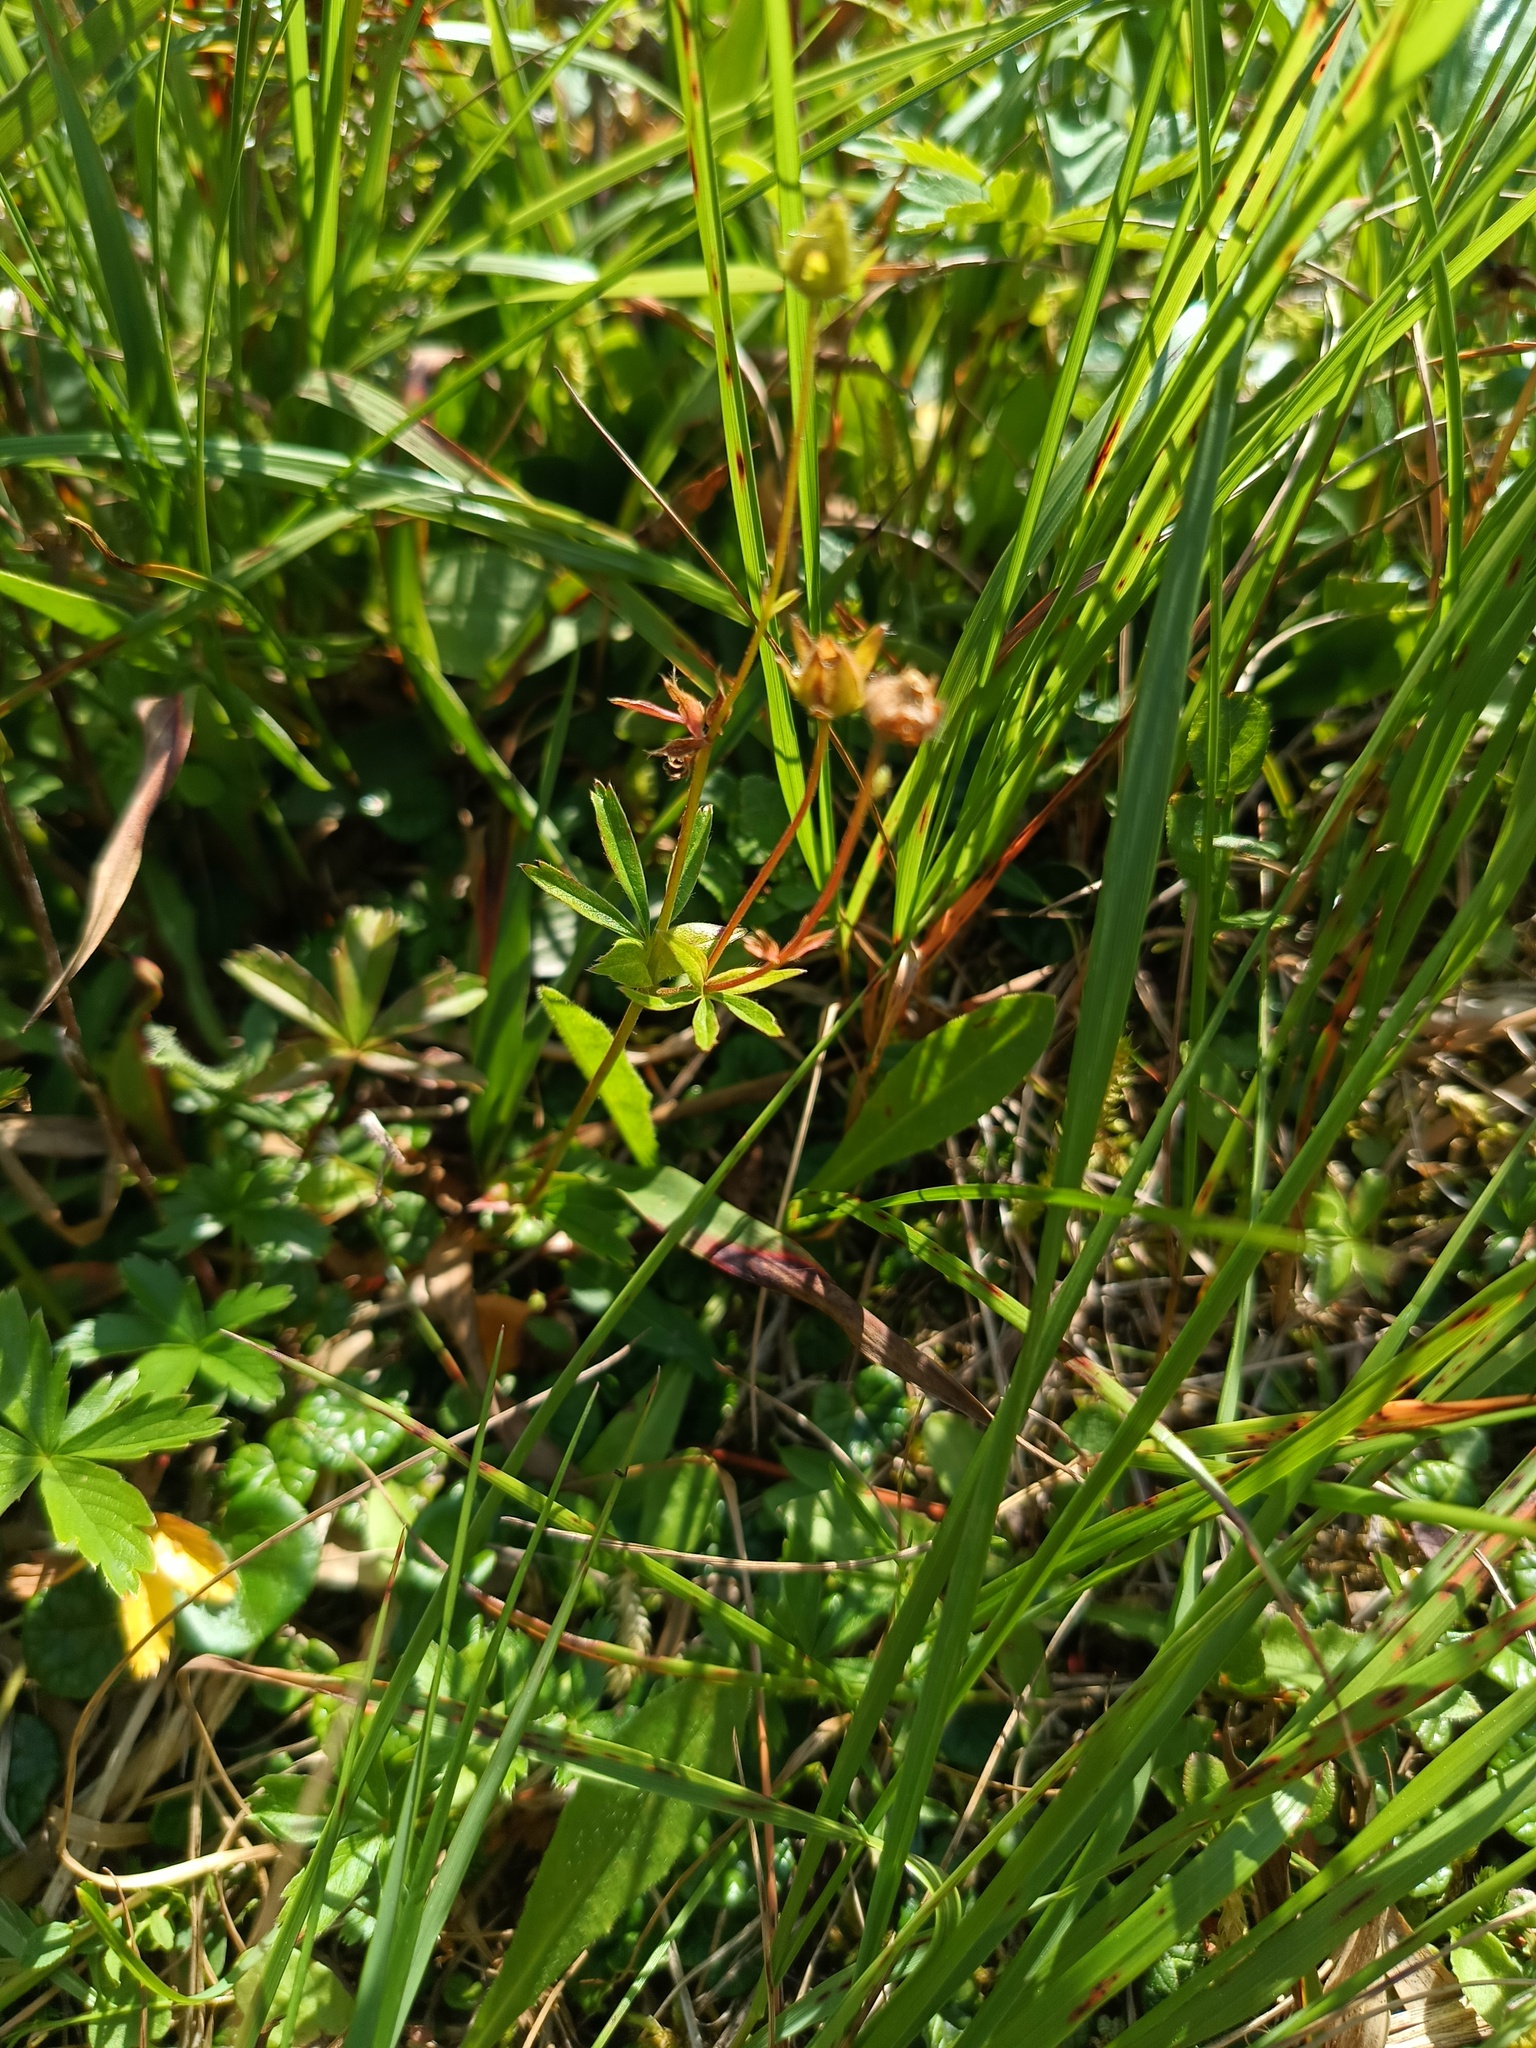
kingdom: Plantae
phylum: Tracheophyta
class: Magnoliopsida
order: Rosales
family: Rosaceae
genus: Potentilla
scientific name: Potentilla erecta
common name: Tormentil
